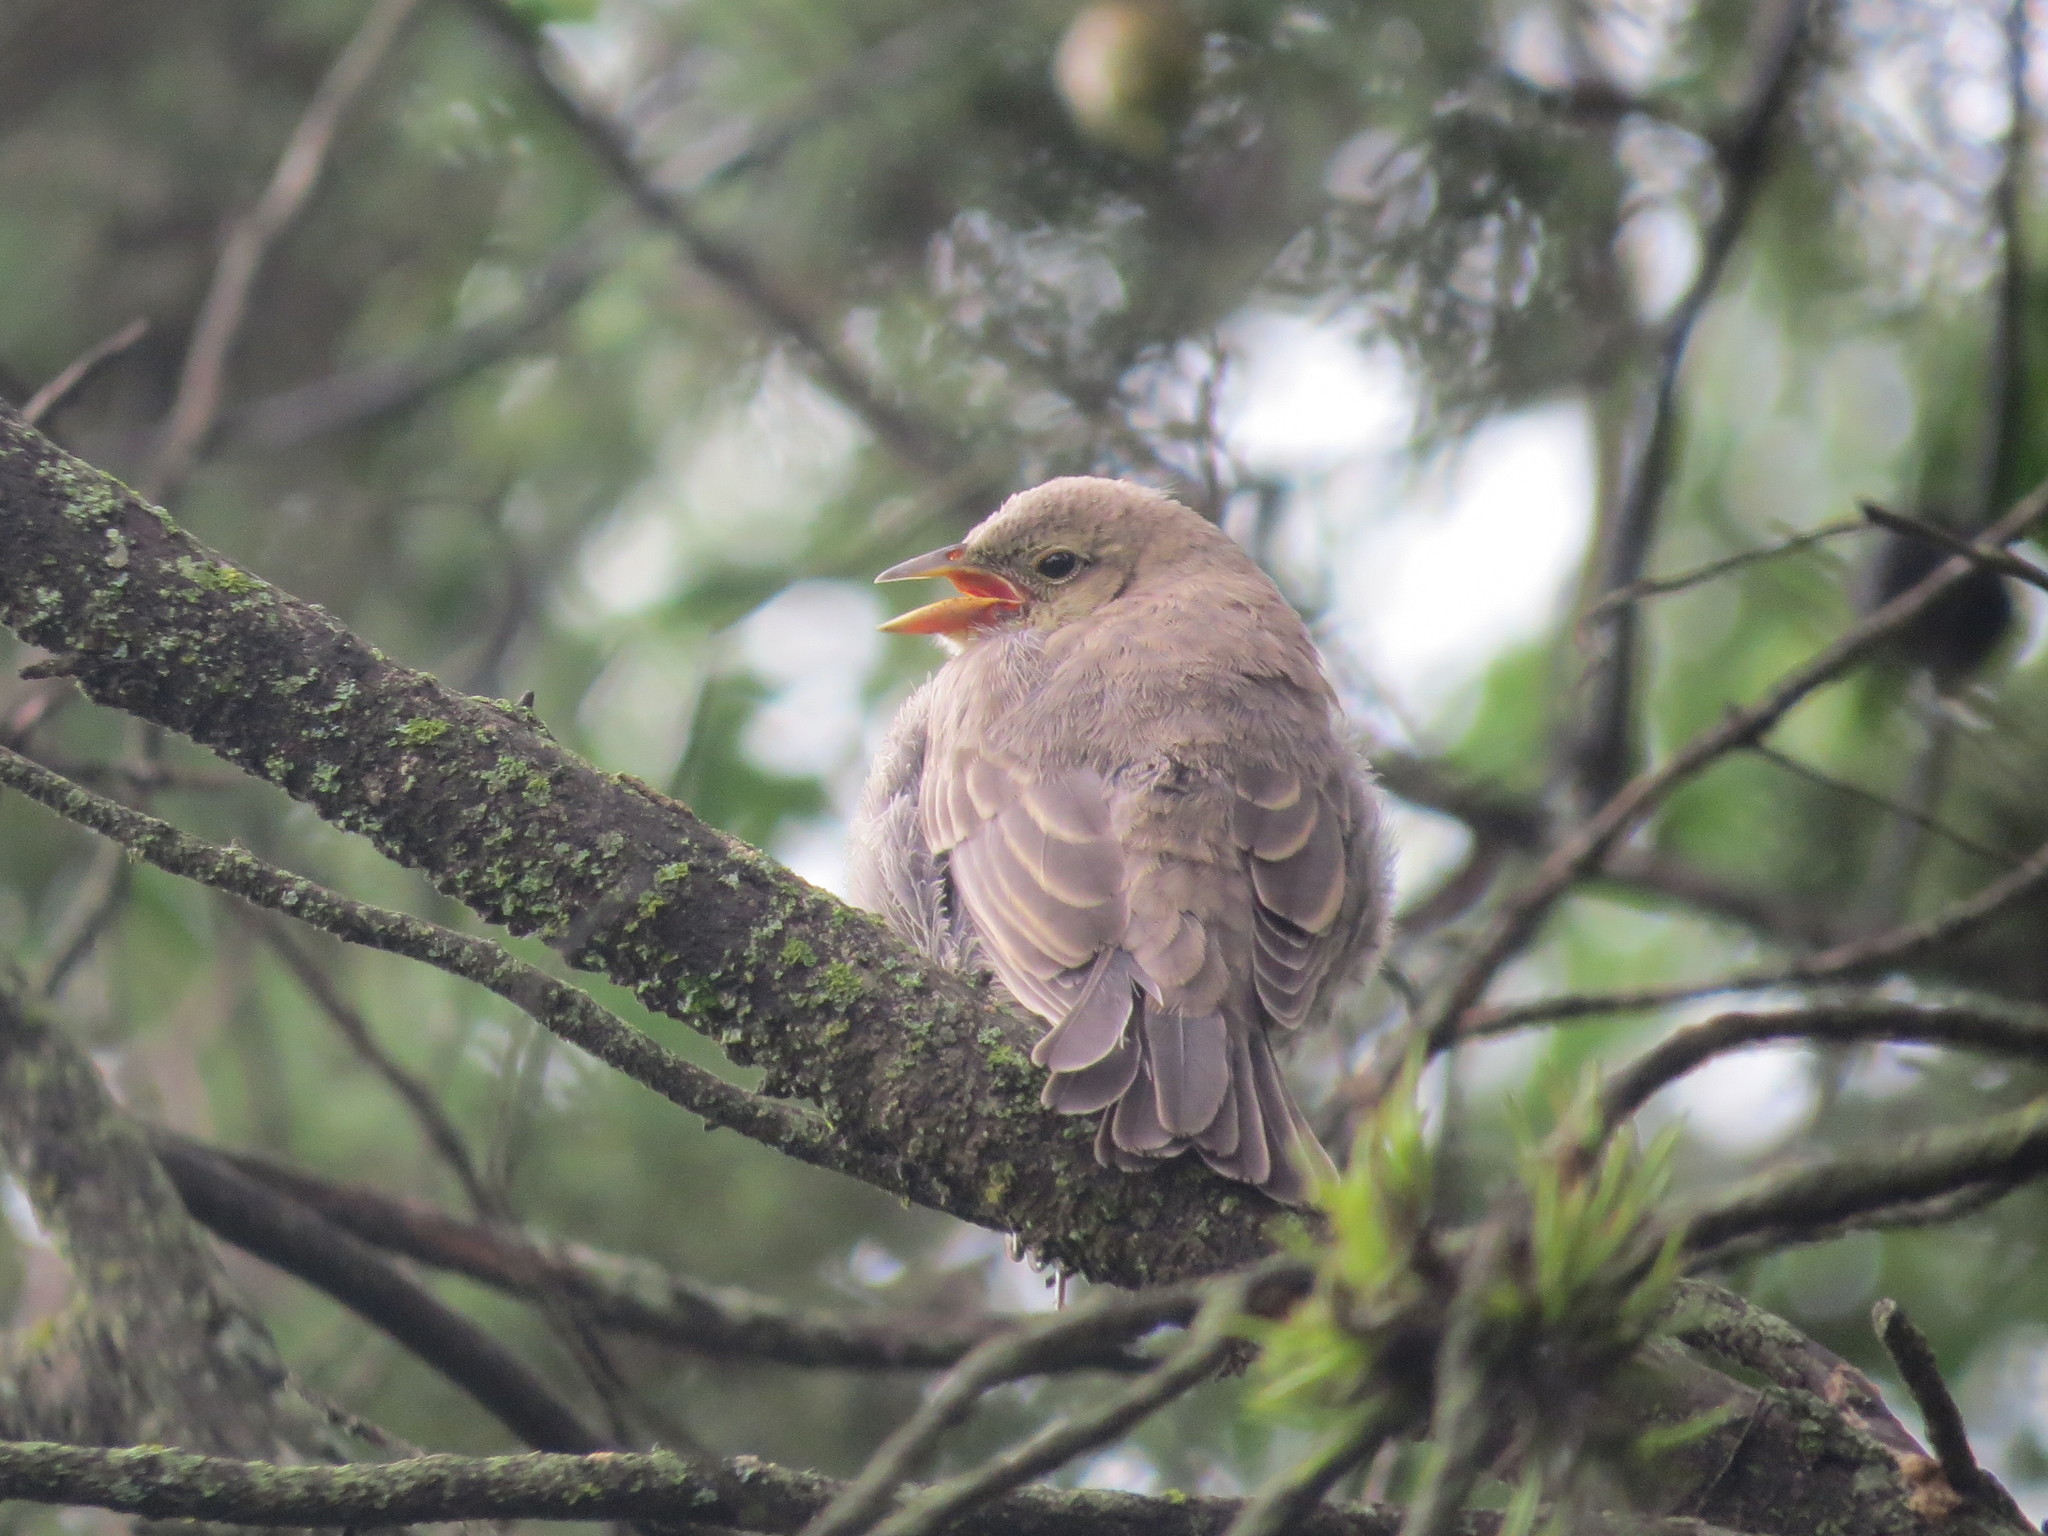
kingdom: Animalia
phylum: Chordata
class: Aves
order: Passeriformes
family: Icteridae
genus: Molothrus
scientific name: Molothrus bonariensis
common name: Shiny cowbird
